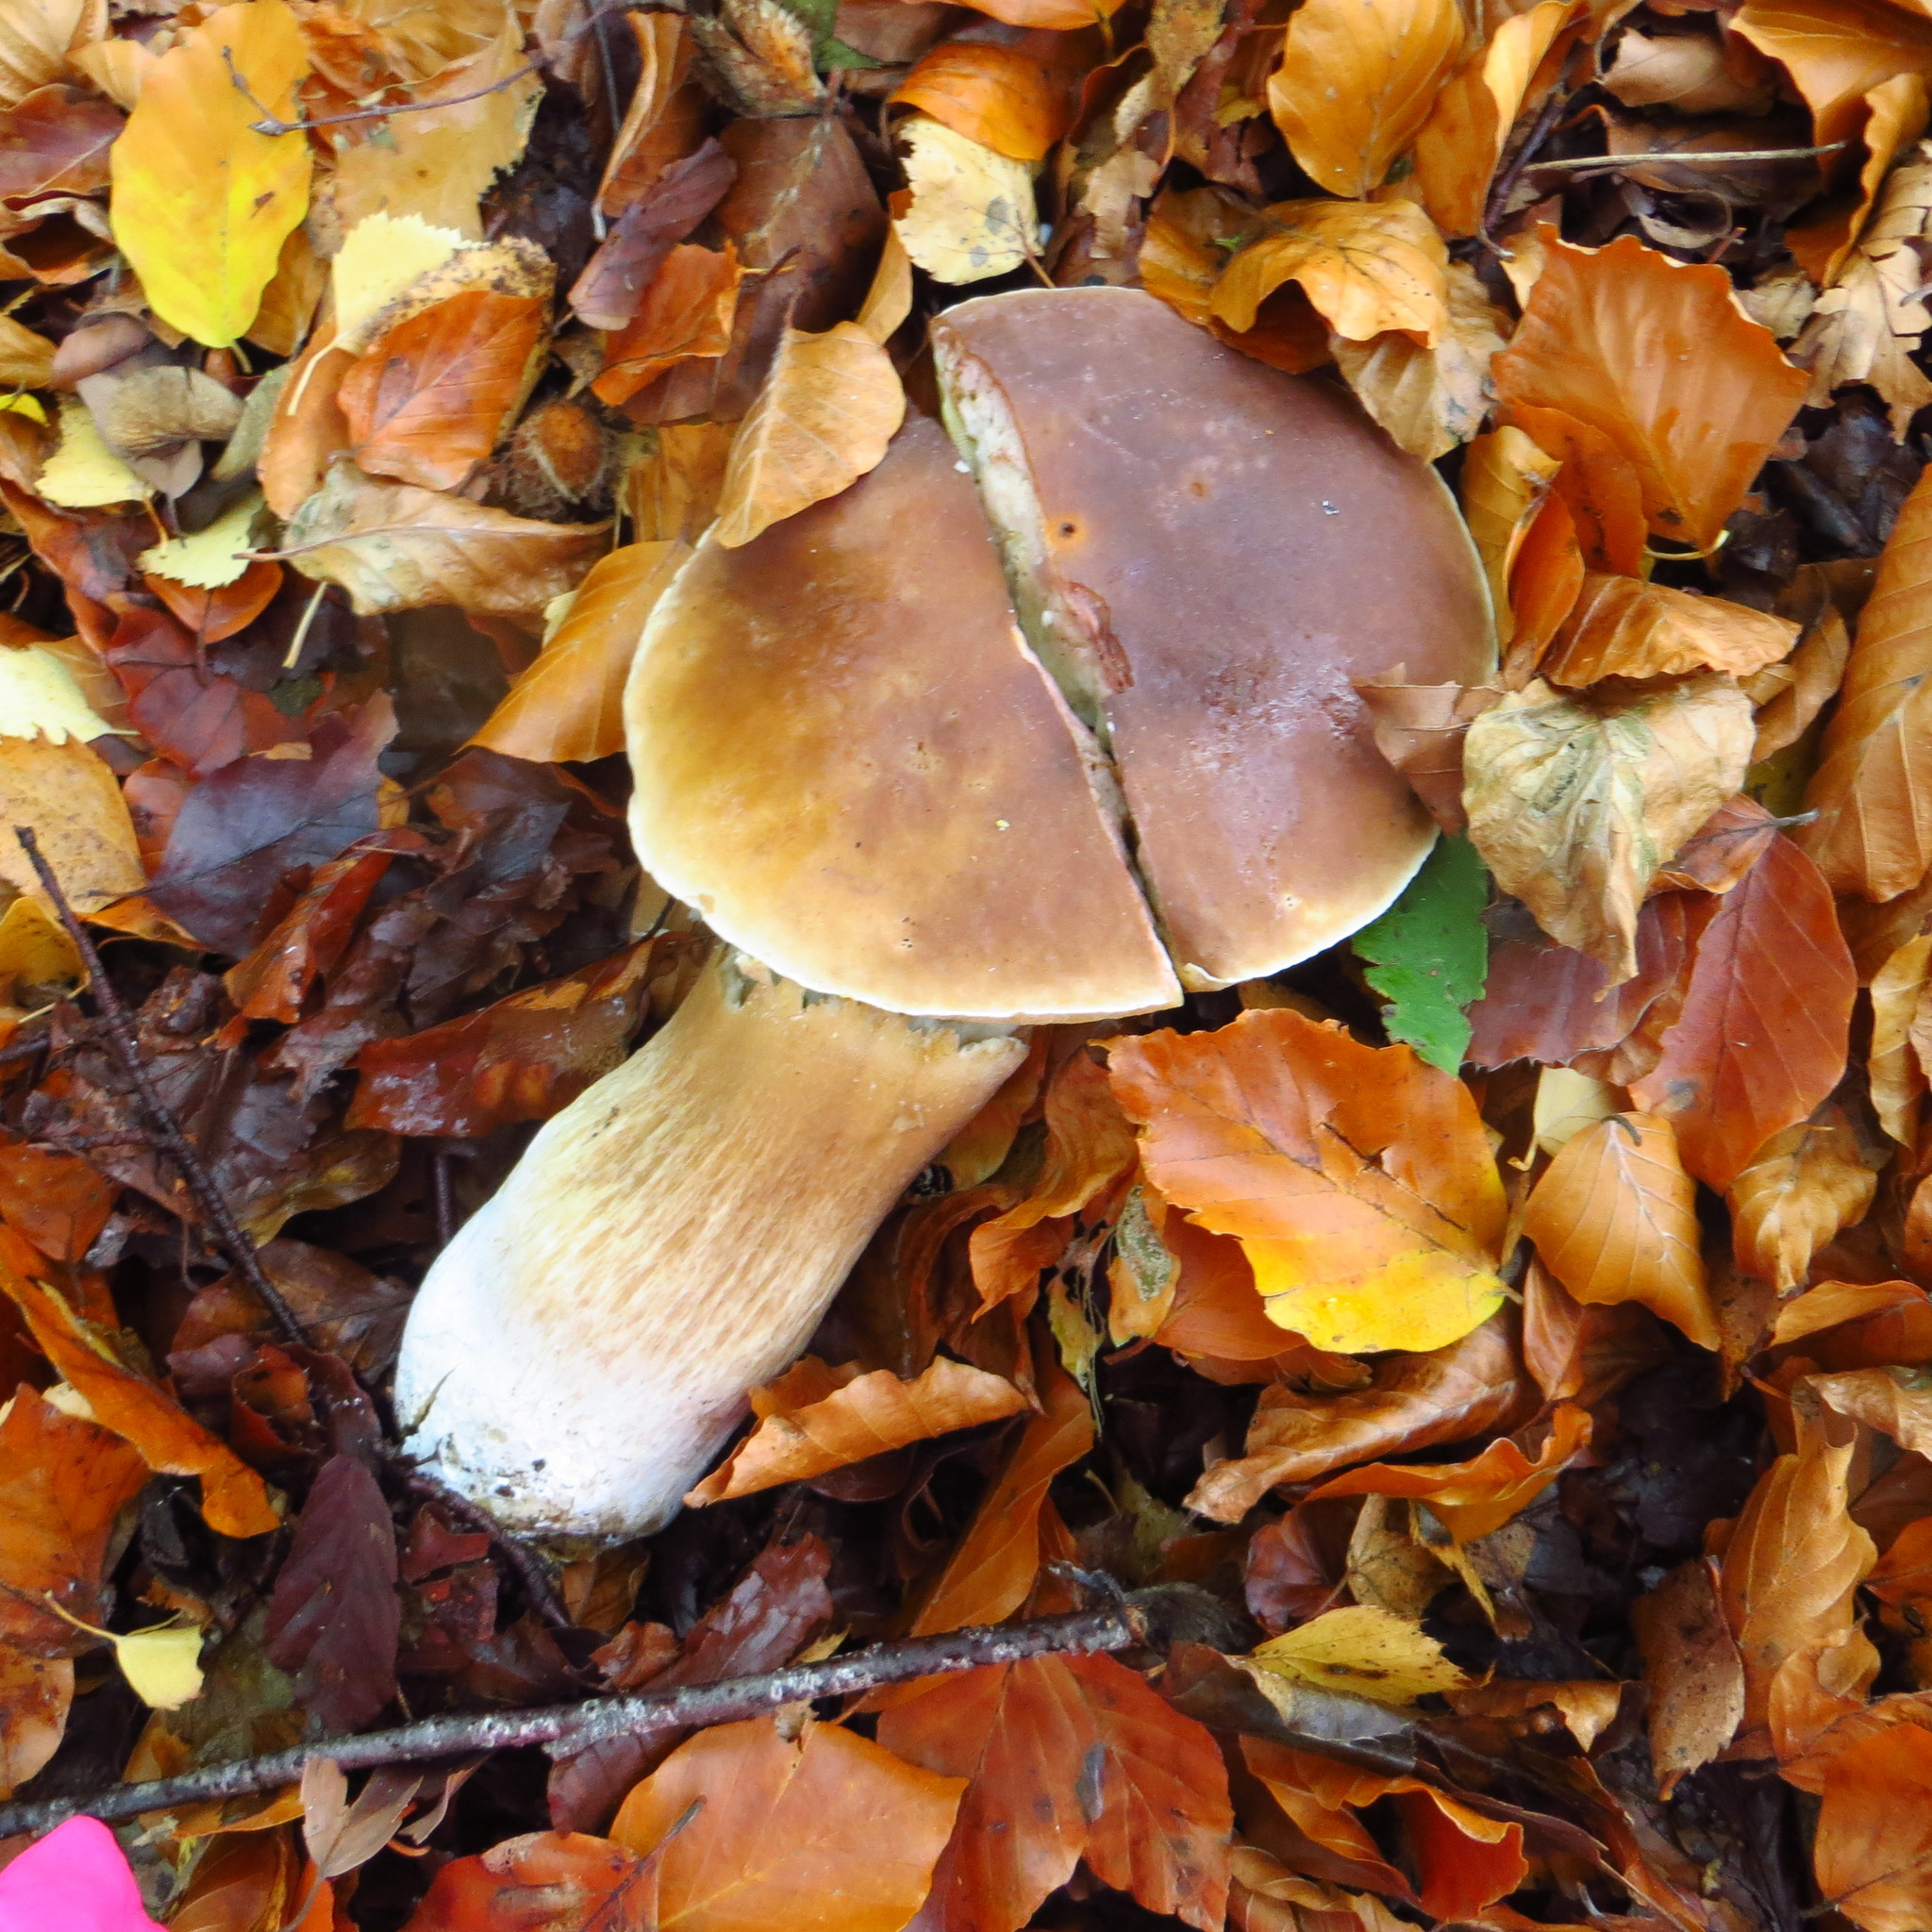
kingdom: Fungi
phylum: Basidiomycota
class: Agaricomycetes
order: Boletales
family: Boletaceae
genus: Boletus
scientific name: Boletus edulis
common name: Cep
